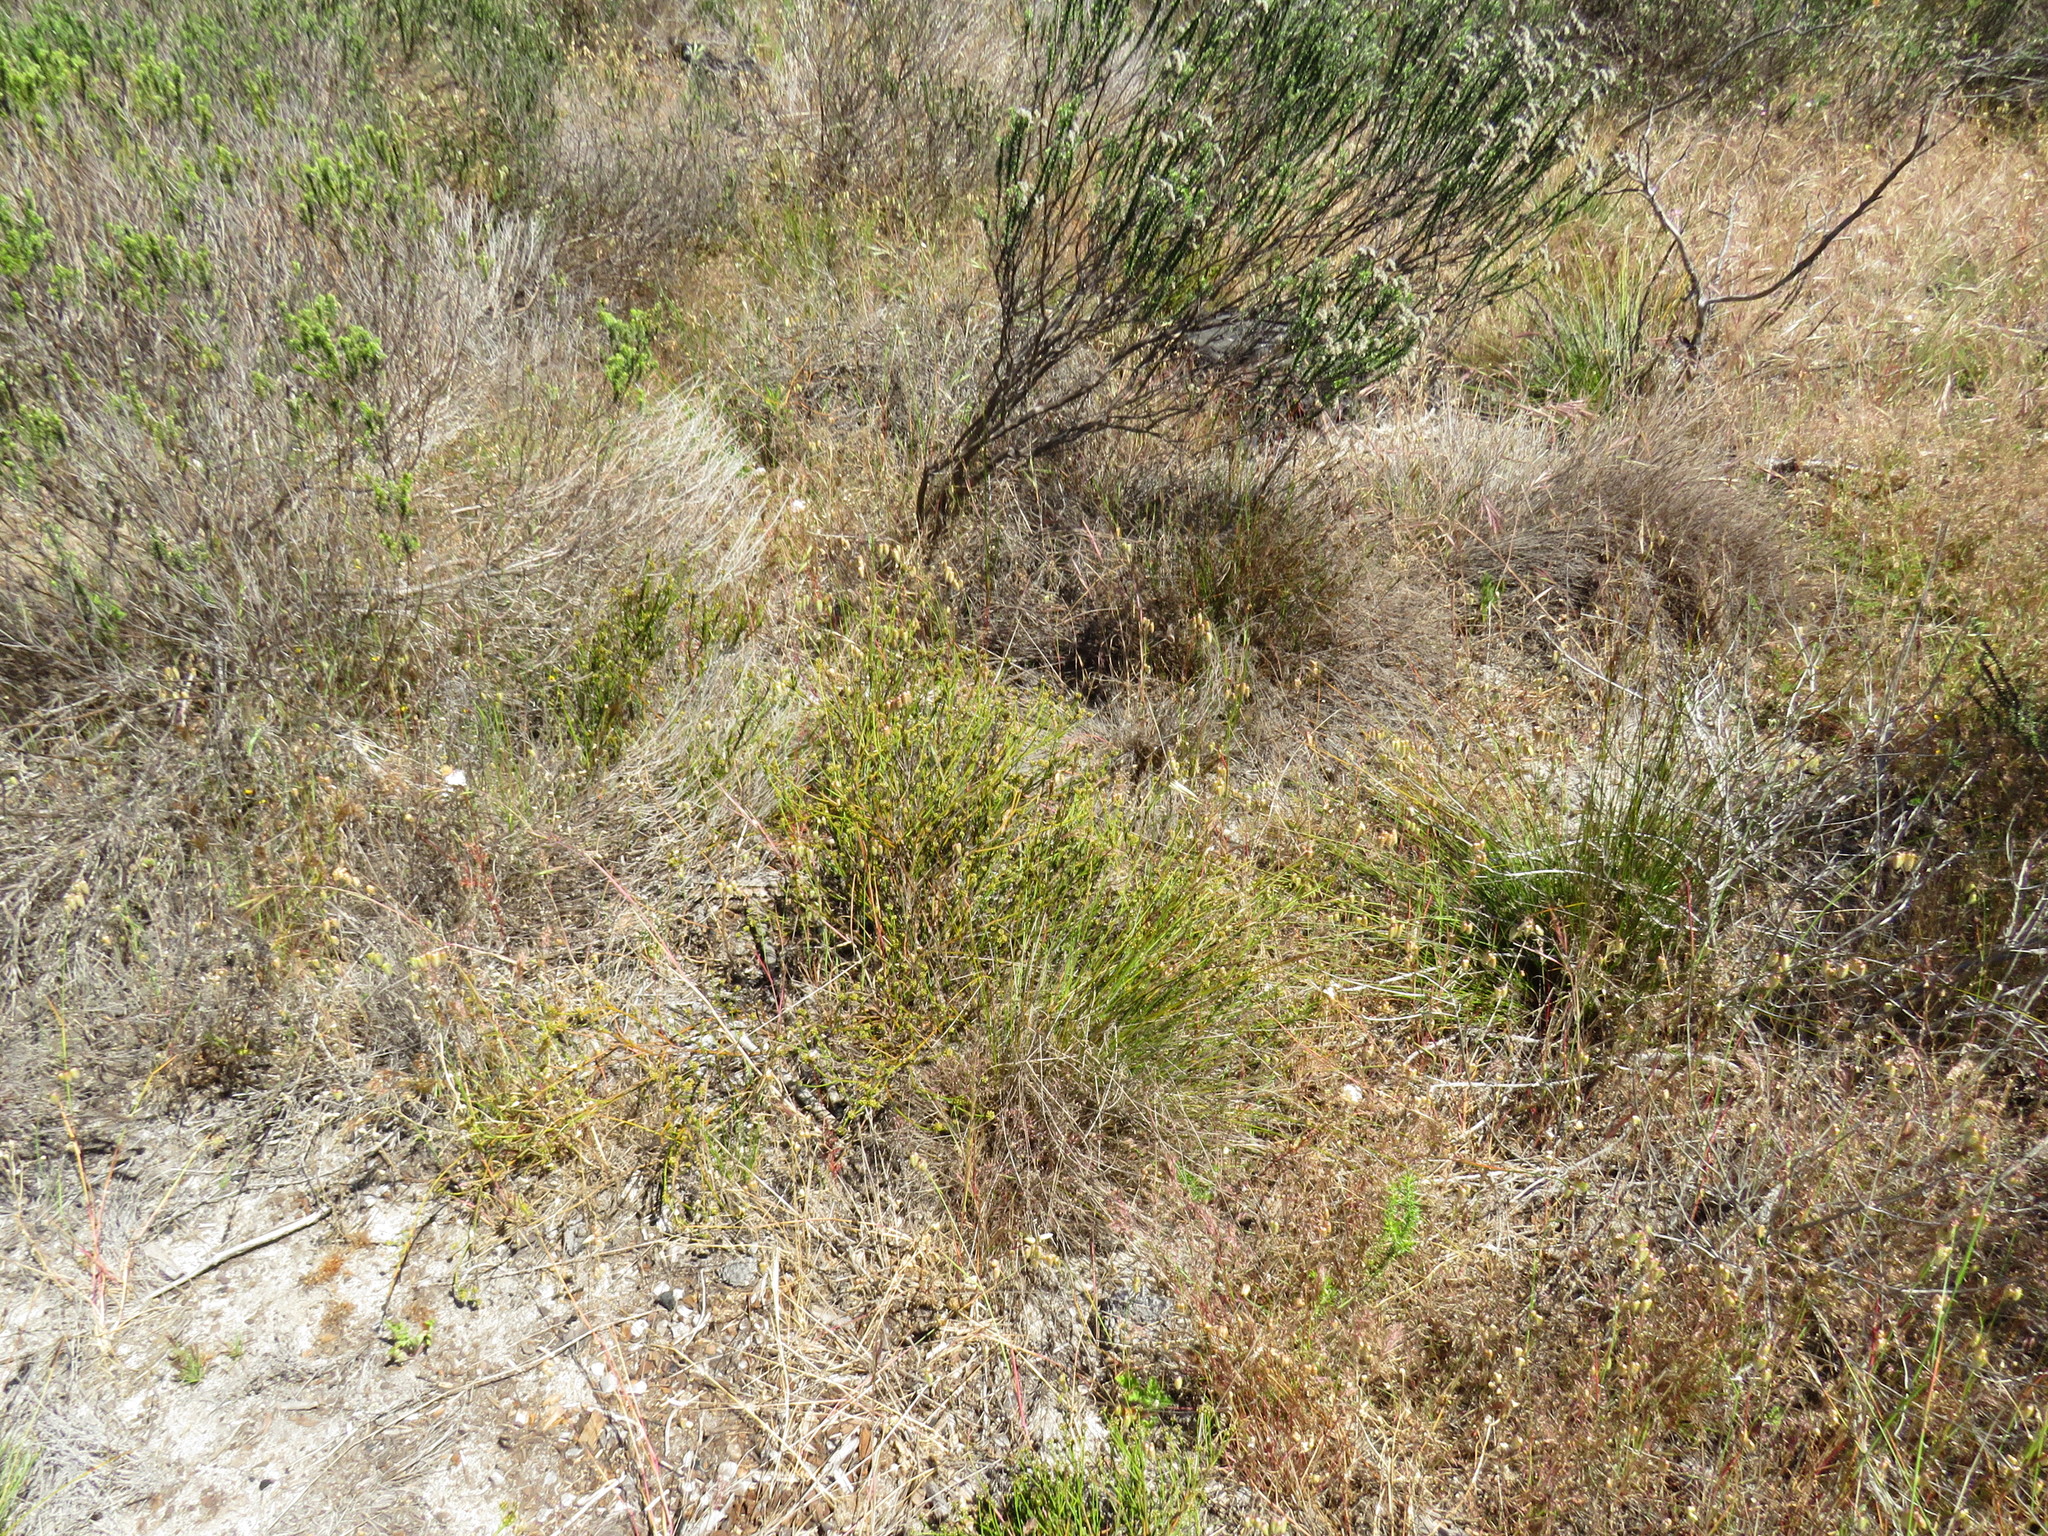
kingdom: Plantae
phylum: Tracheophyta
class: Magnoliopsida
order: Santalales
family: Thesiaceae
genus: Thesium
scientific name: Thesium aggregatum
